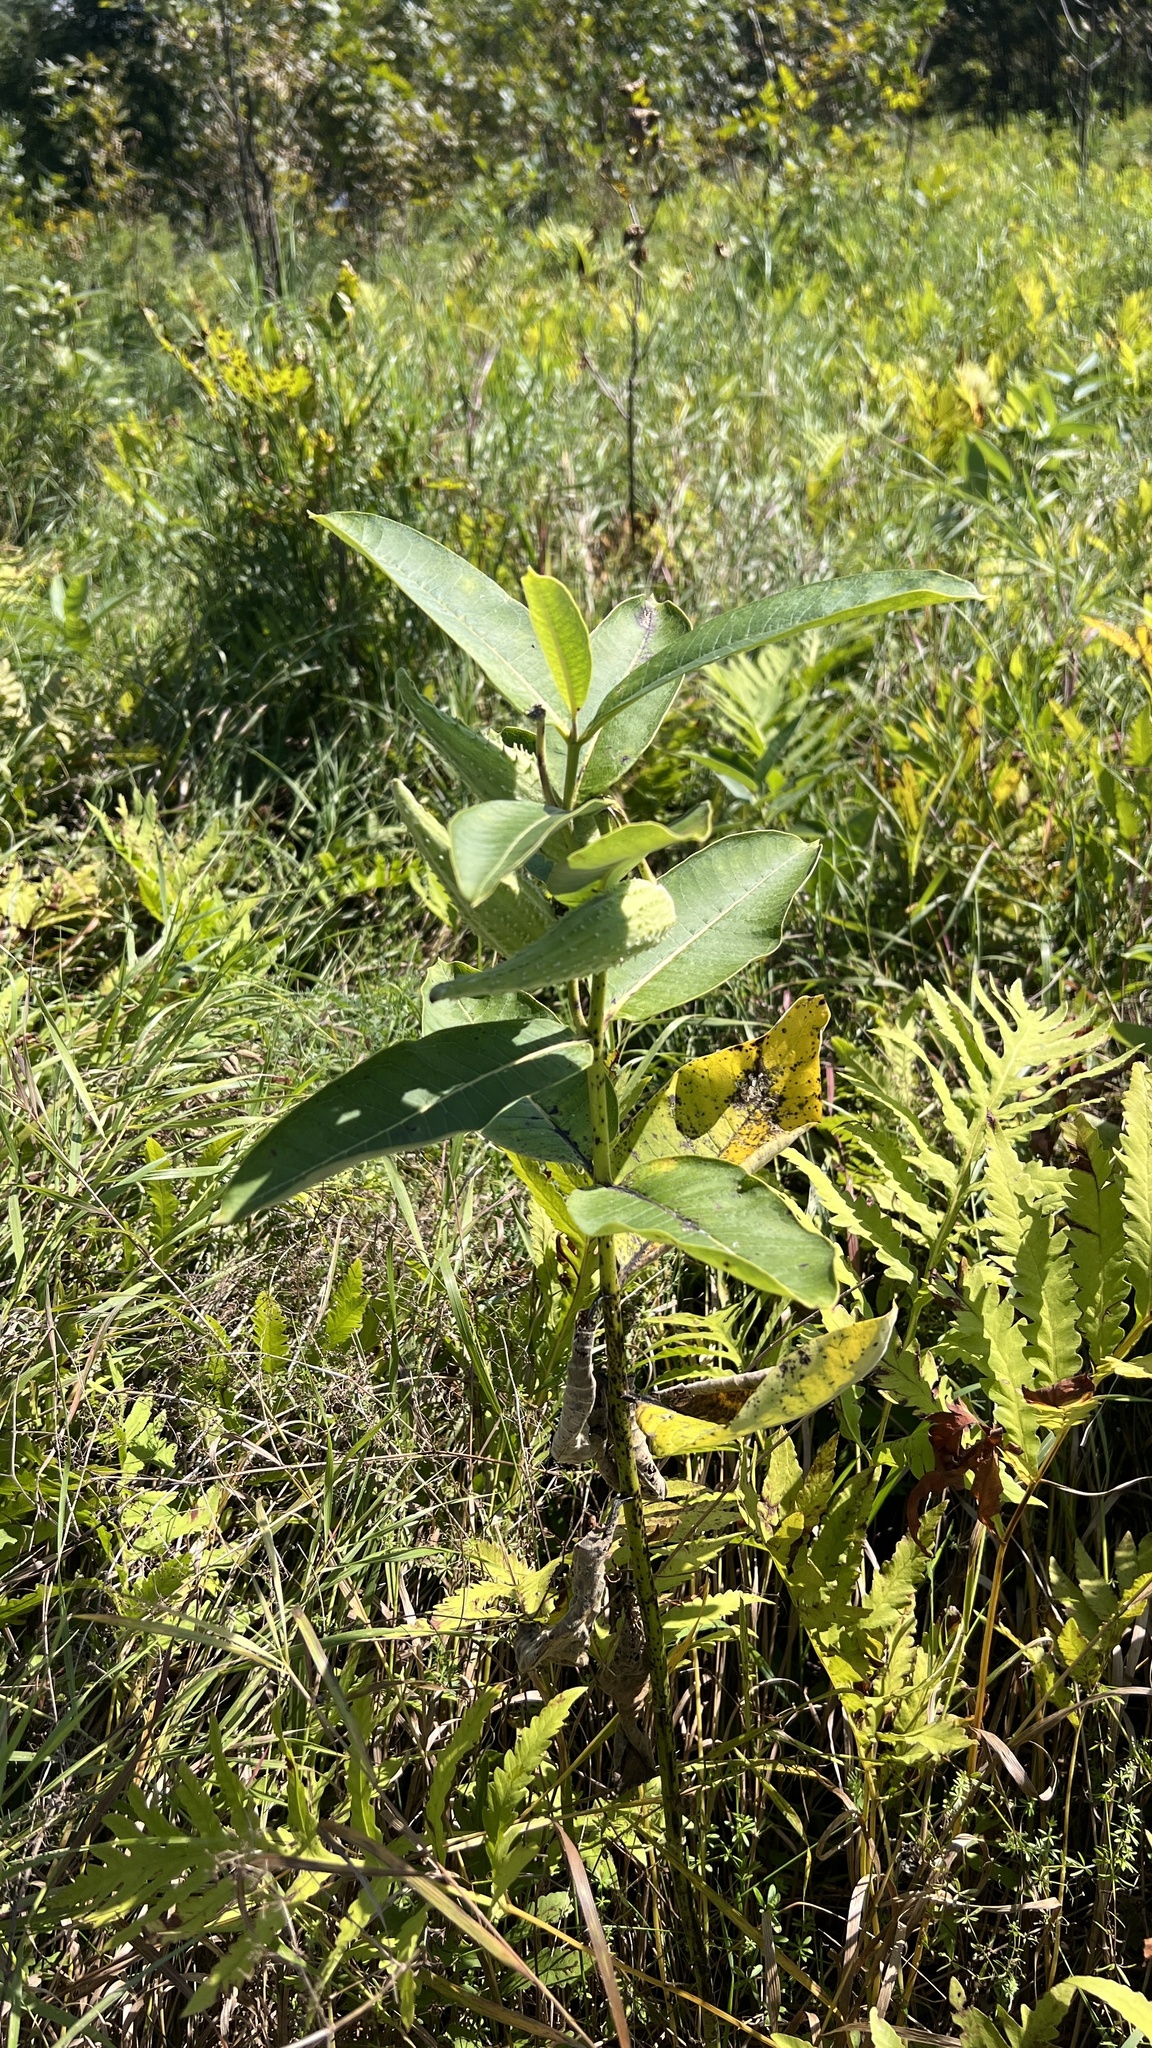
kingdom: Plantae
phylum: Tracheophyta
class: Magnoliopsida
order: Gentianales
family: Apocynaceae
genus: Asclepias
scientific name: Asclepias syriaca
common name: Common milkweed
